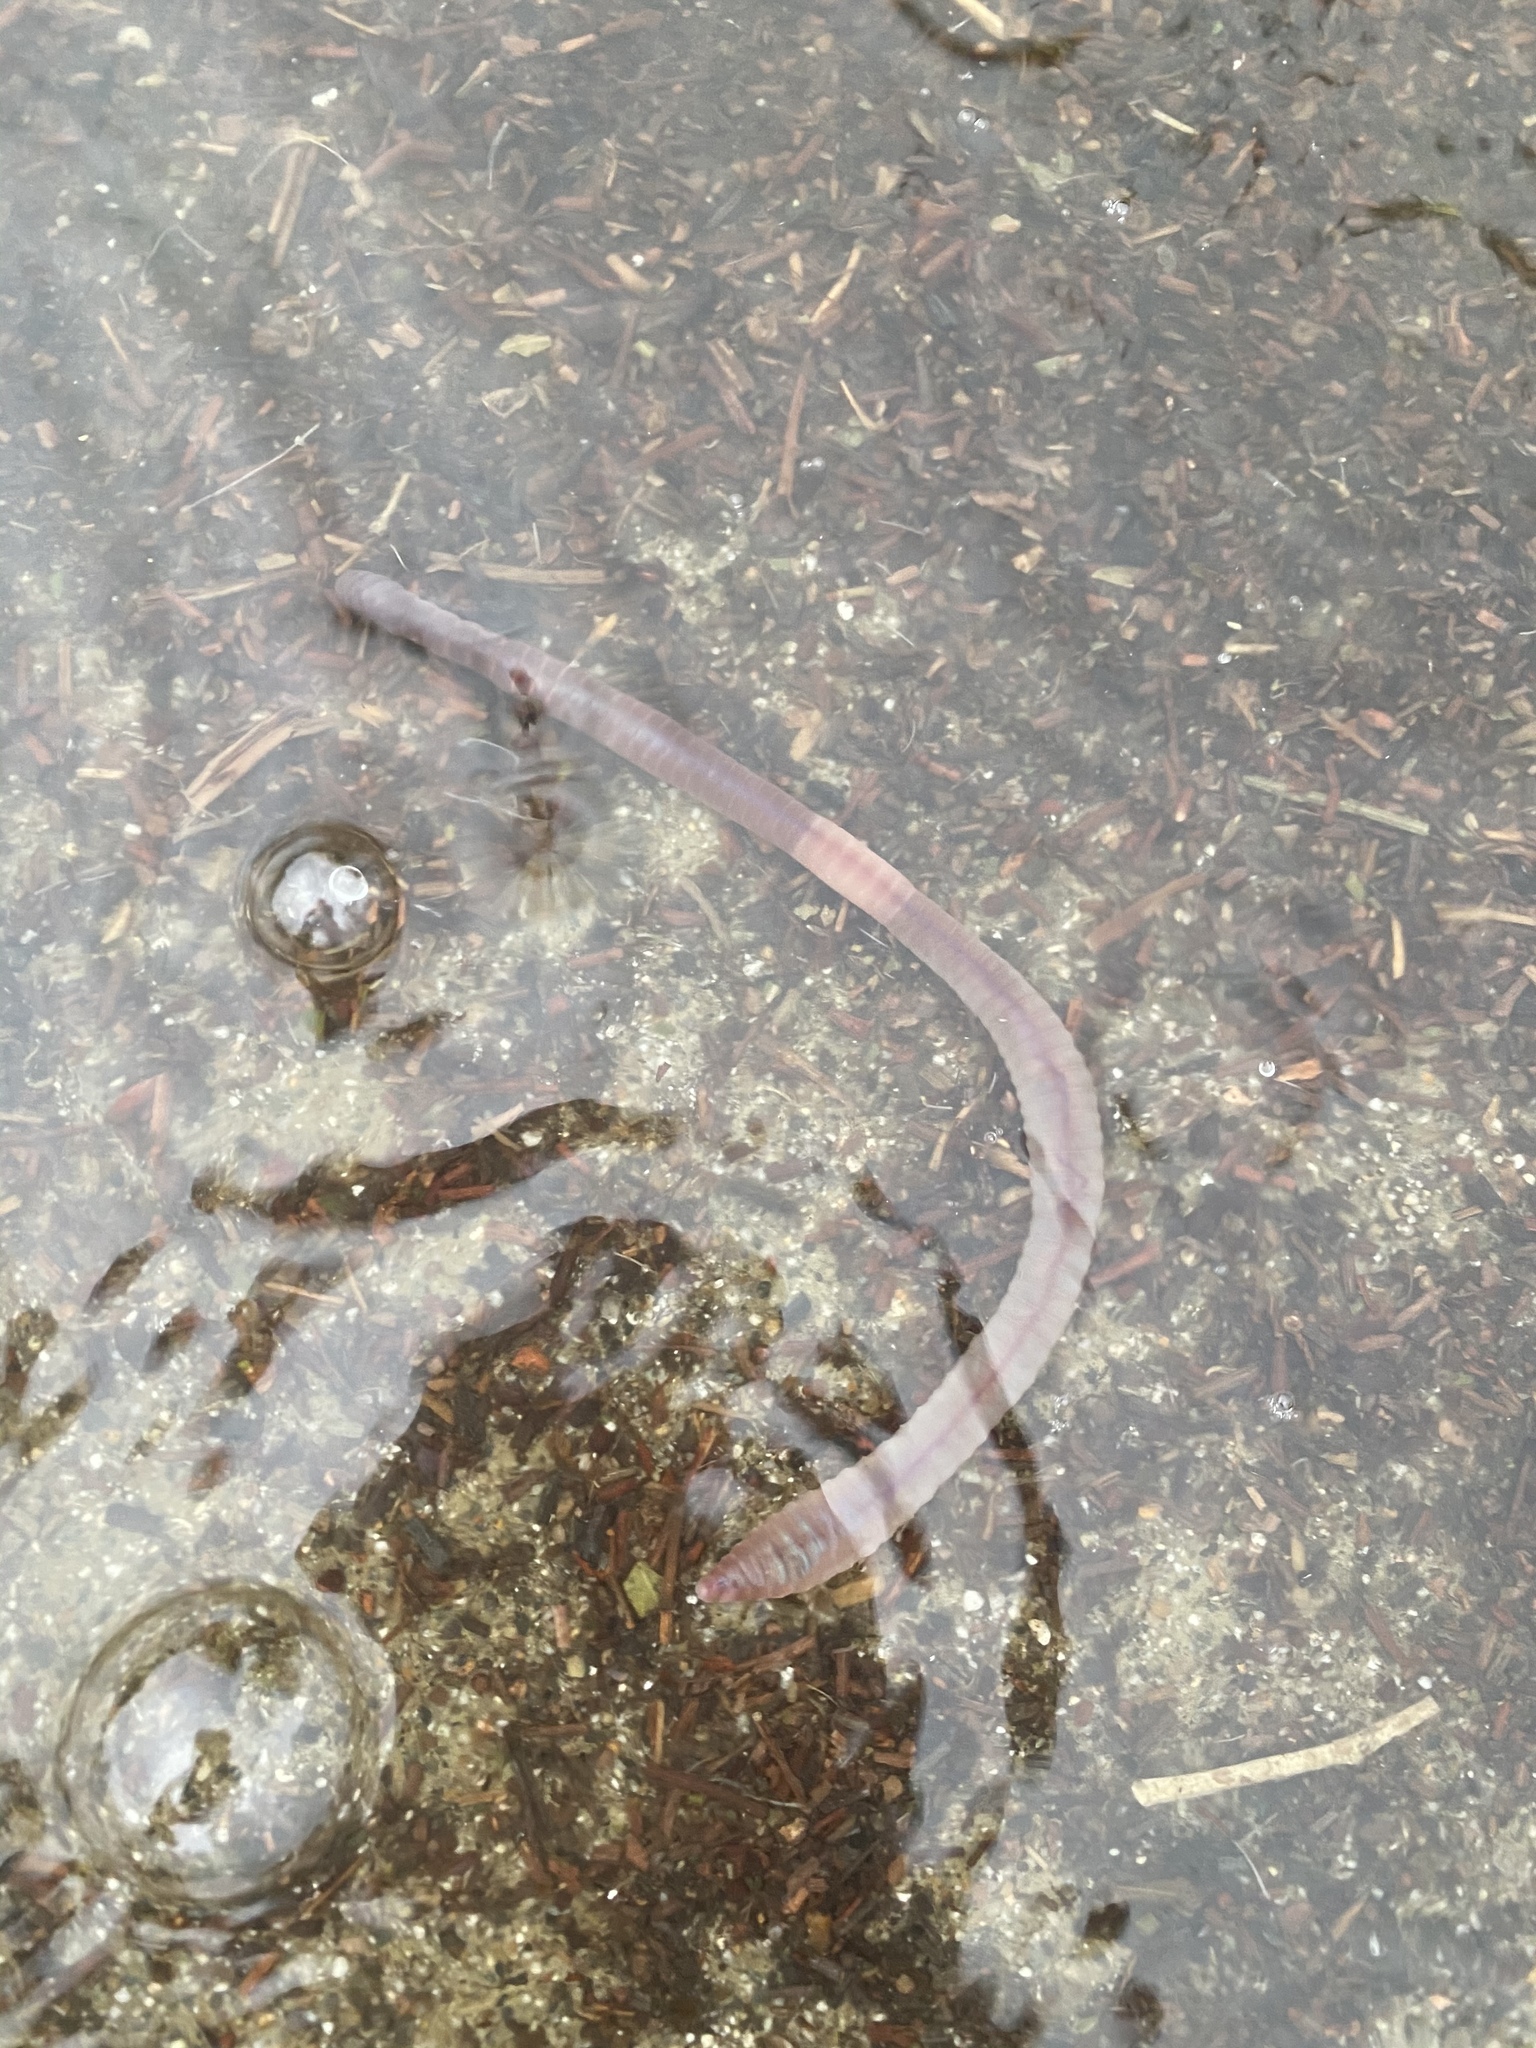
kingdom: Animalia
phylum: Annelida
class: Clitellata
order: Crassiclitellata
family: Lumbricidae
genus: Lumbricus
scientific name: Lumbricus terrestris
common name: Common earthworm
